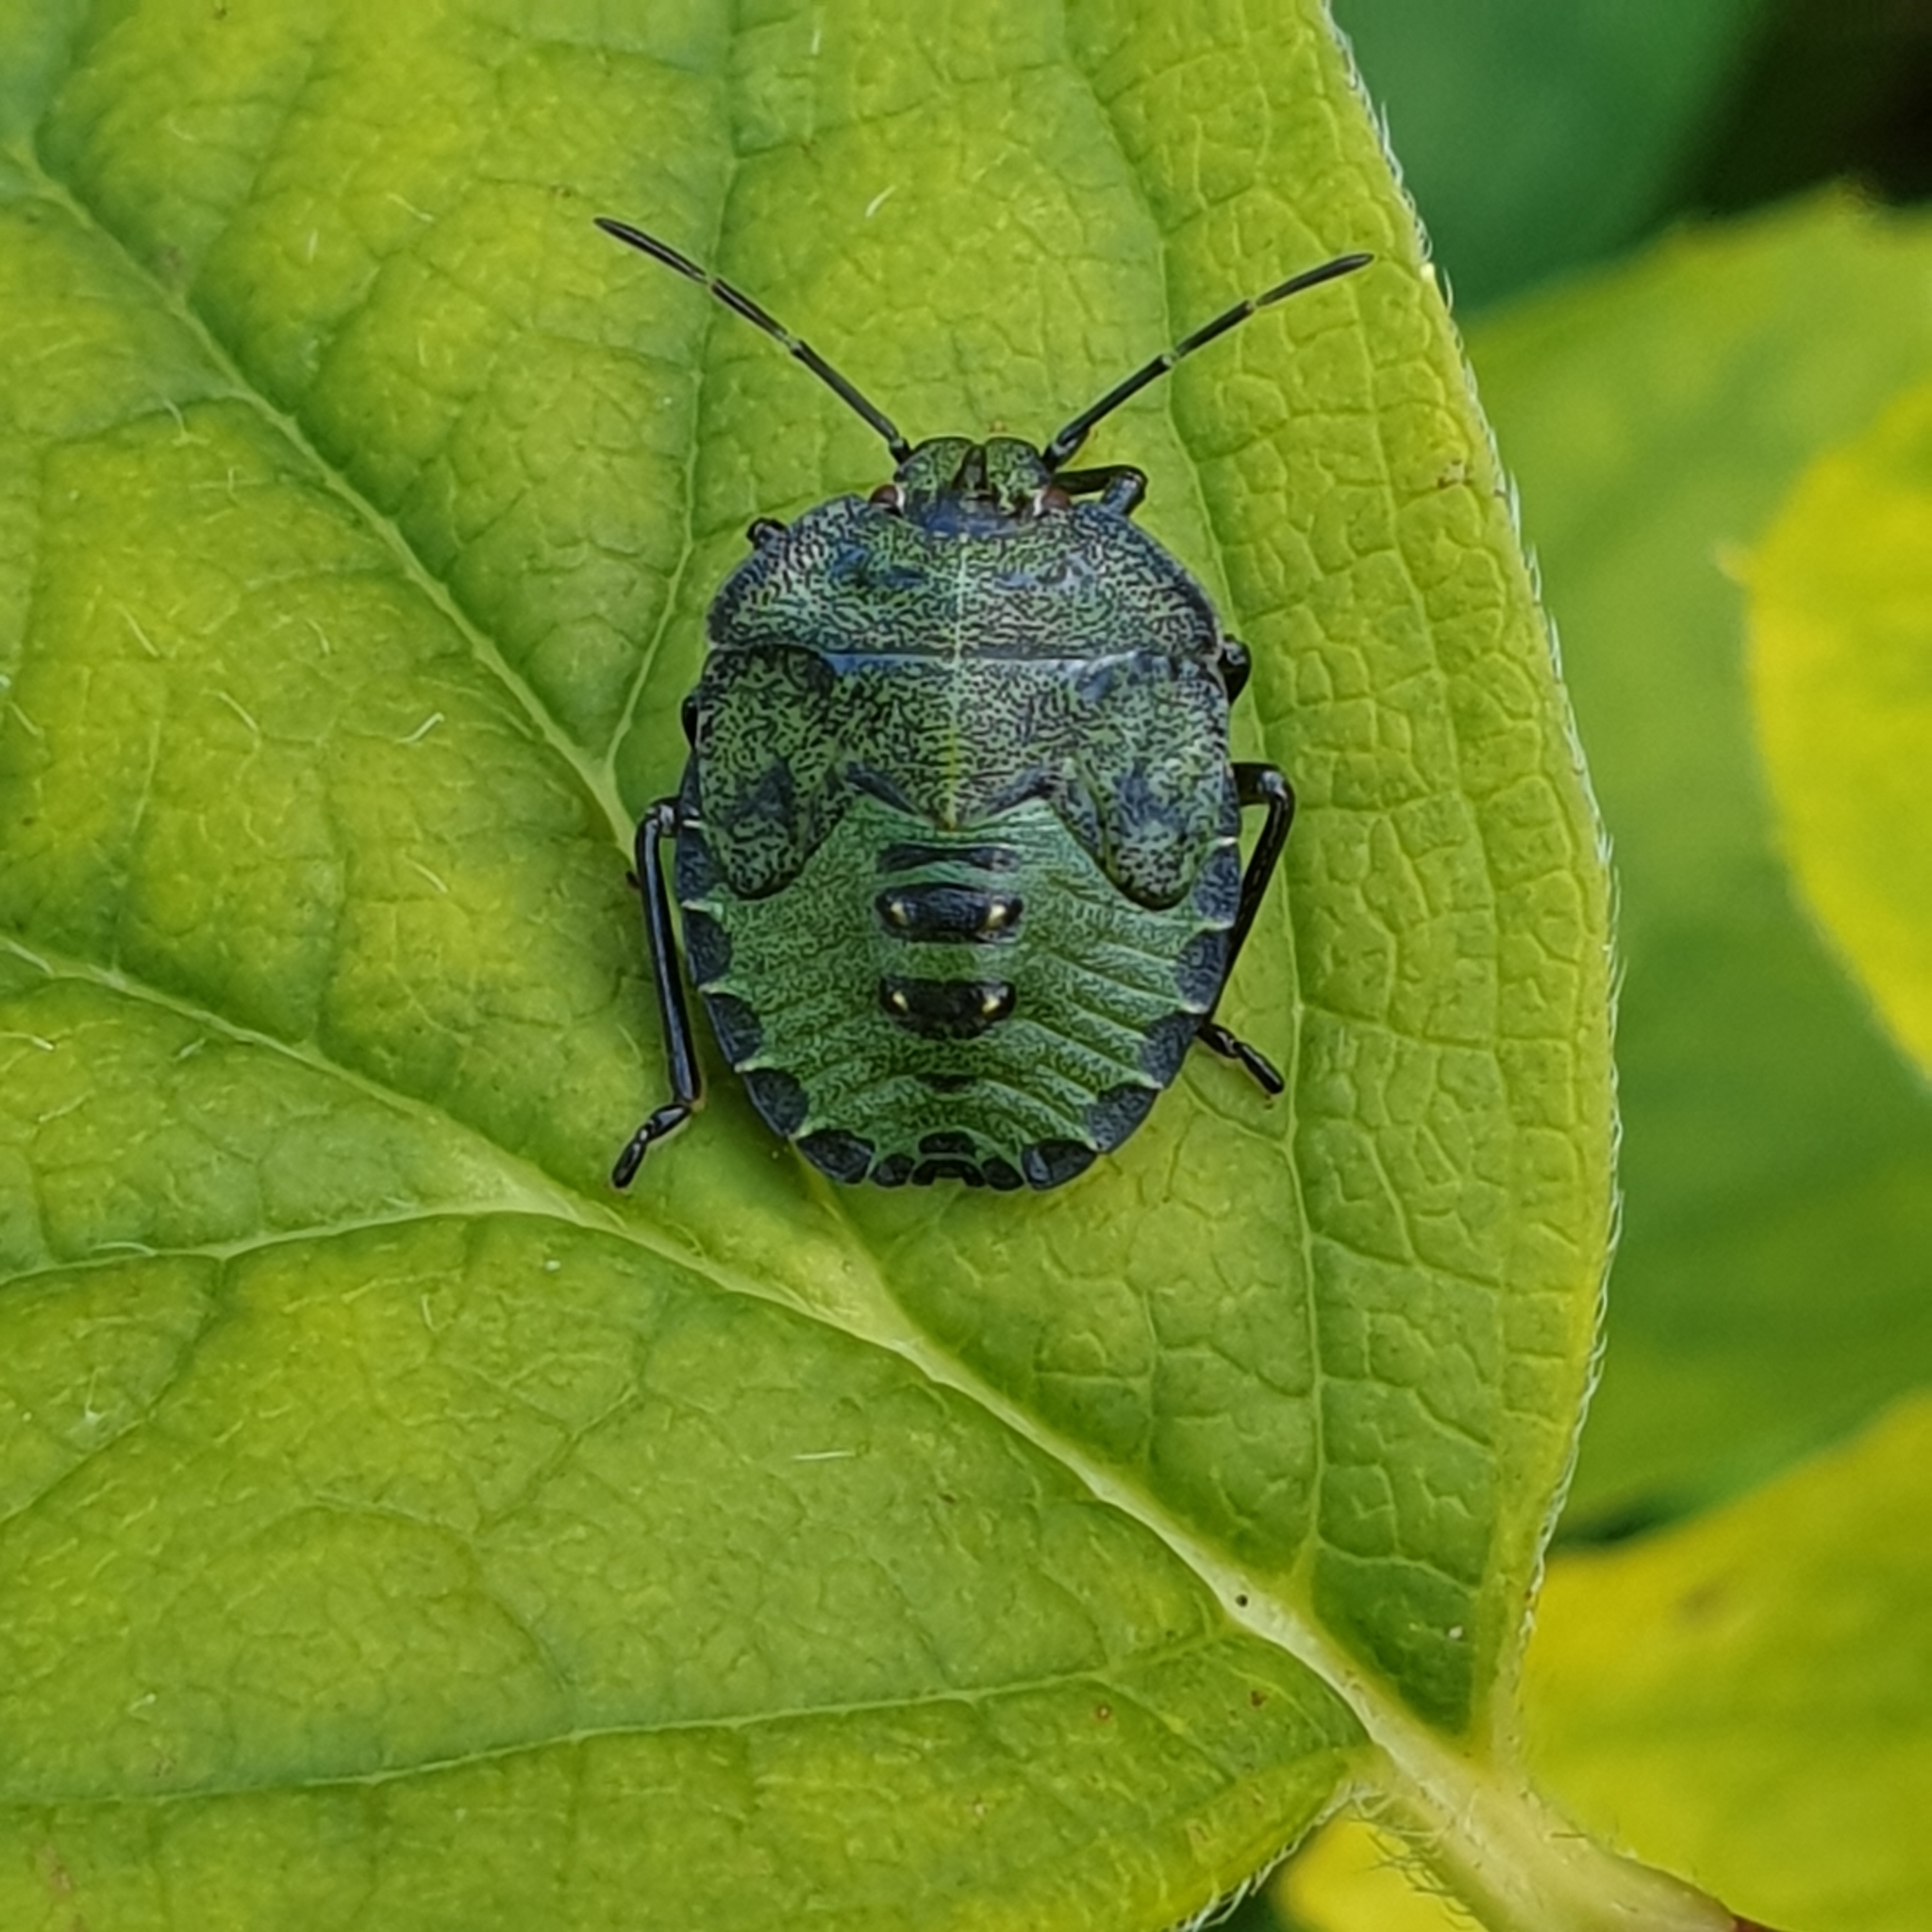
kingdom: Animalia
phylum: Arthropoda
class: Insecta
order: Hemiptera
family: Pentatomidae
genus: Palomena
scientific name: Palomena prasina
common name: Green shieldbug
